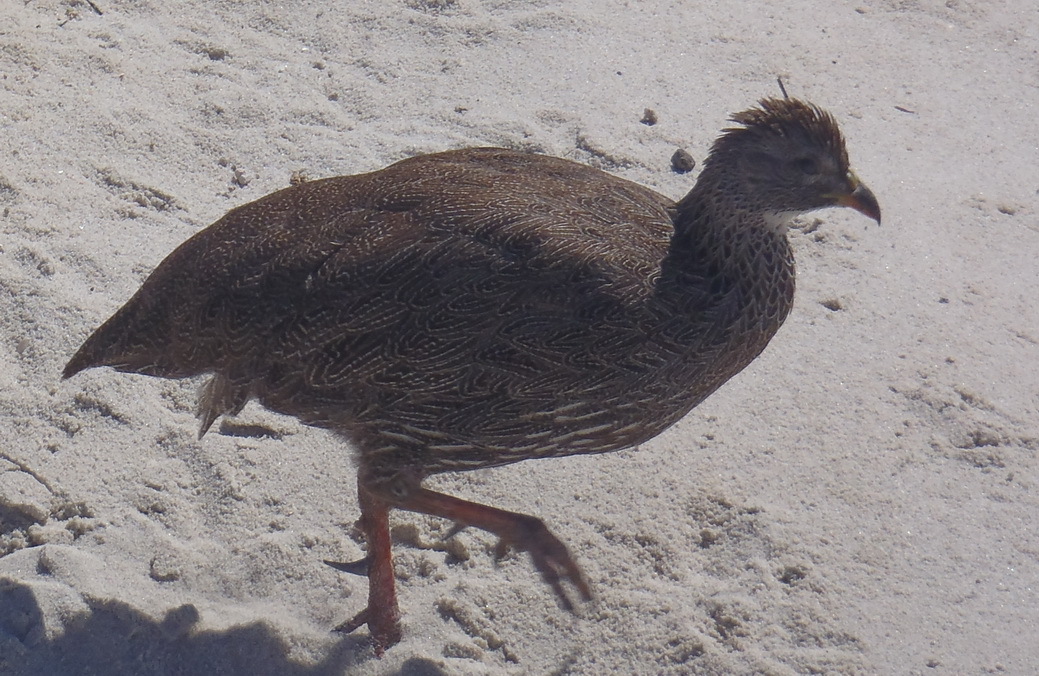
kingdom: Animalia
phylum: Chordata
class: Aves
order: Galliformes
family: Phasianidae
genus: Pternistis
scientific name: Pternistis capensis
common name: Cape spurfowl
